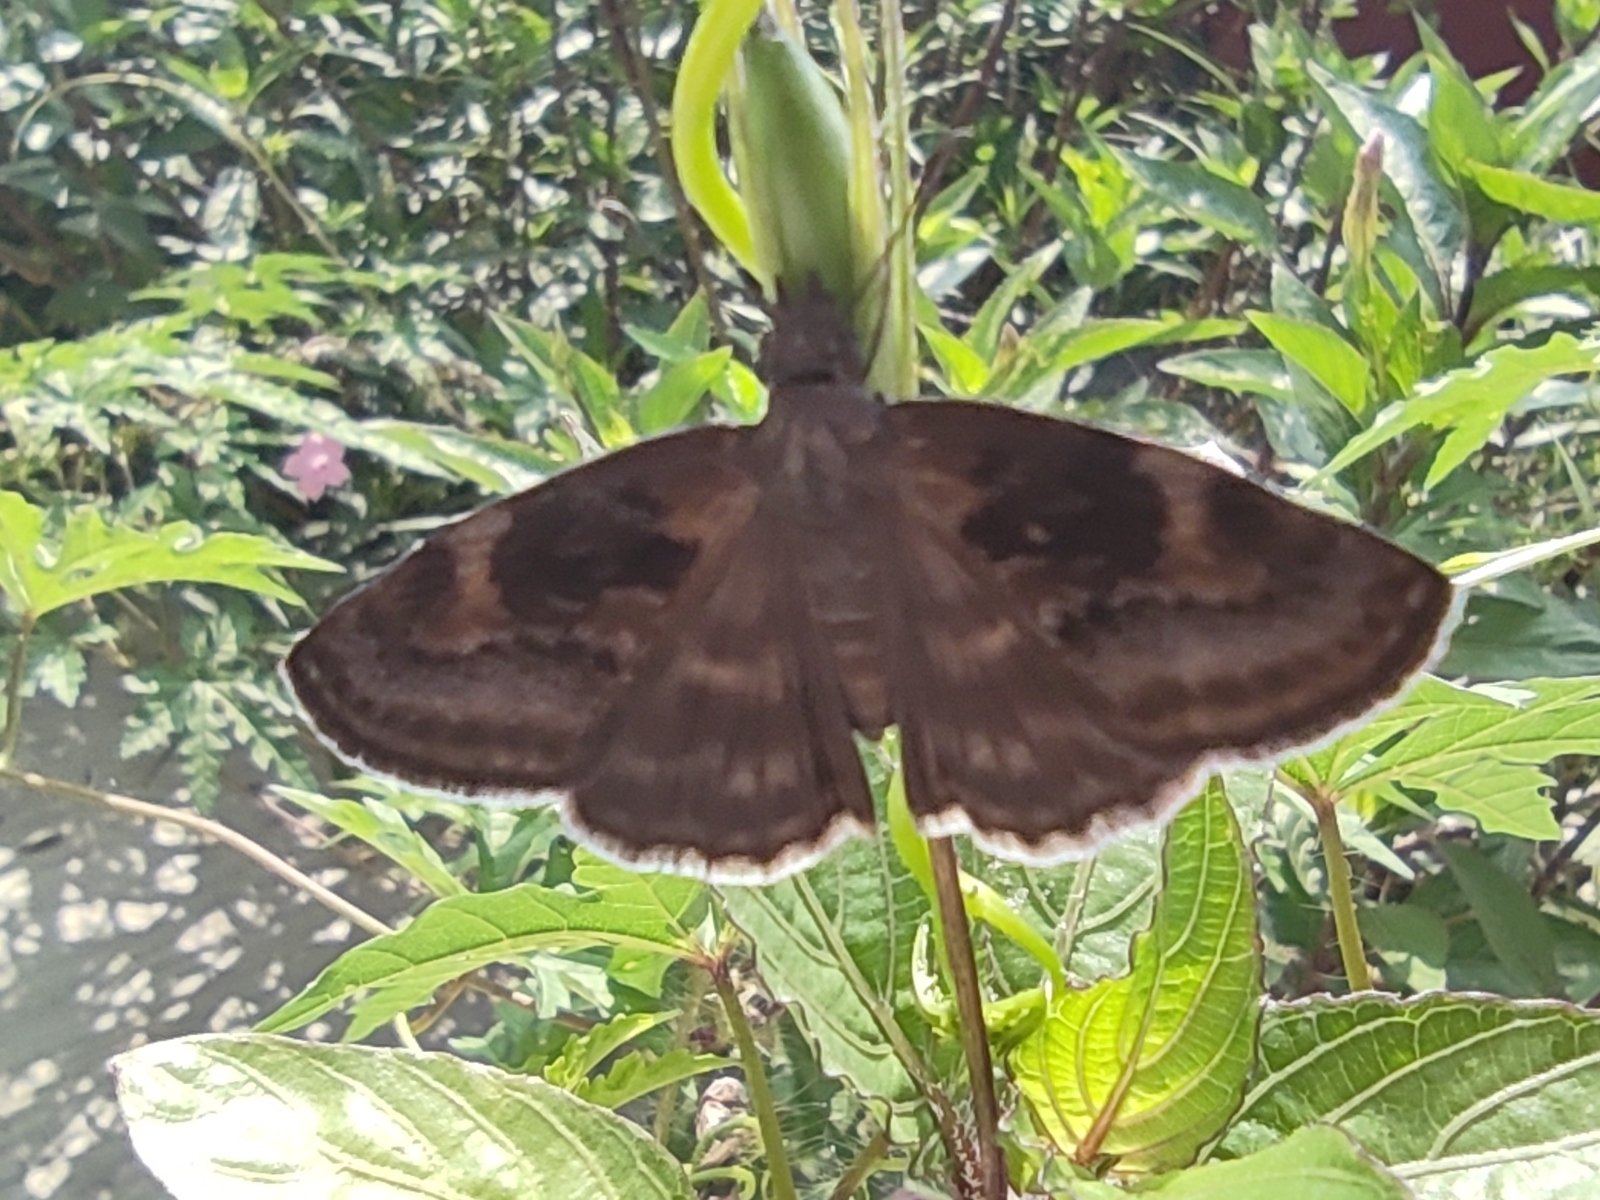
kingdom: Animalia
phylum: Arthropoda
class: Insecta
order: Lepidoptera
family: Hesperiidae
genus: Gesta
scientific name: Gesta gesta
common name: Gesta duskywing
